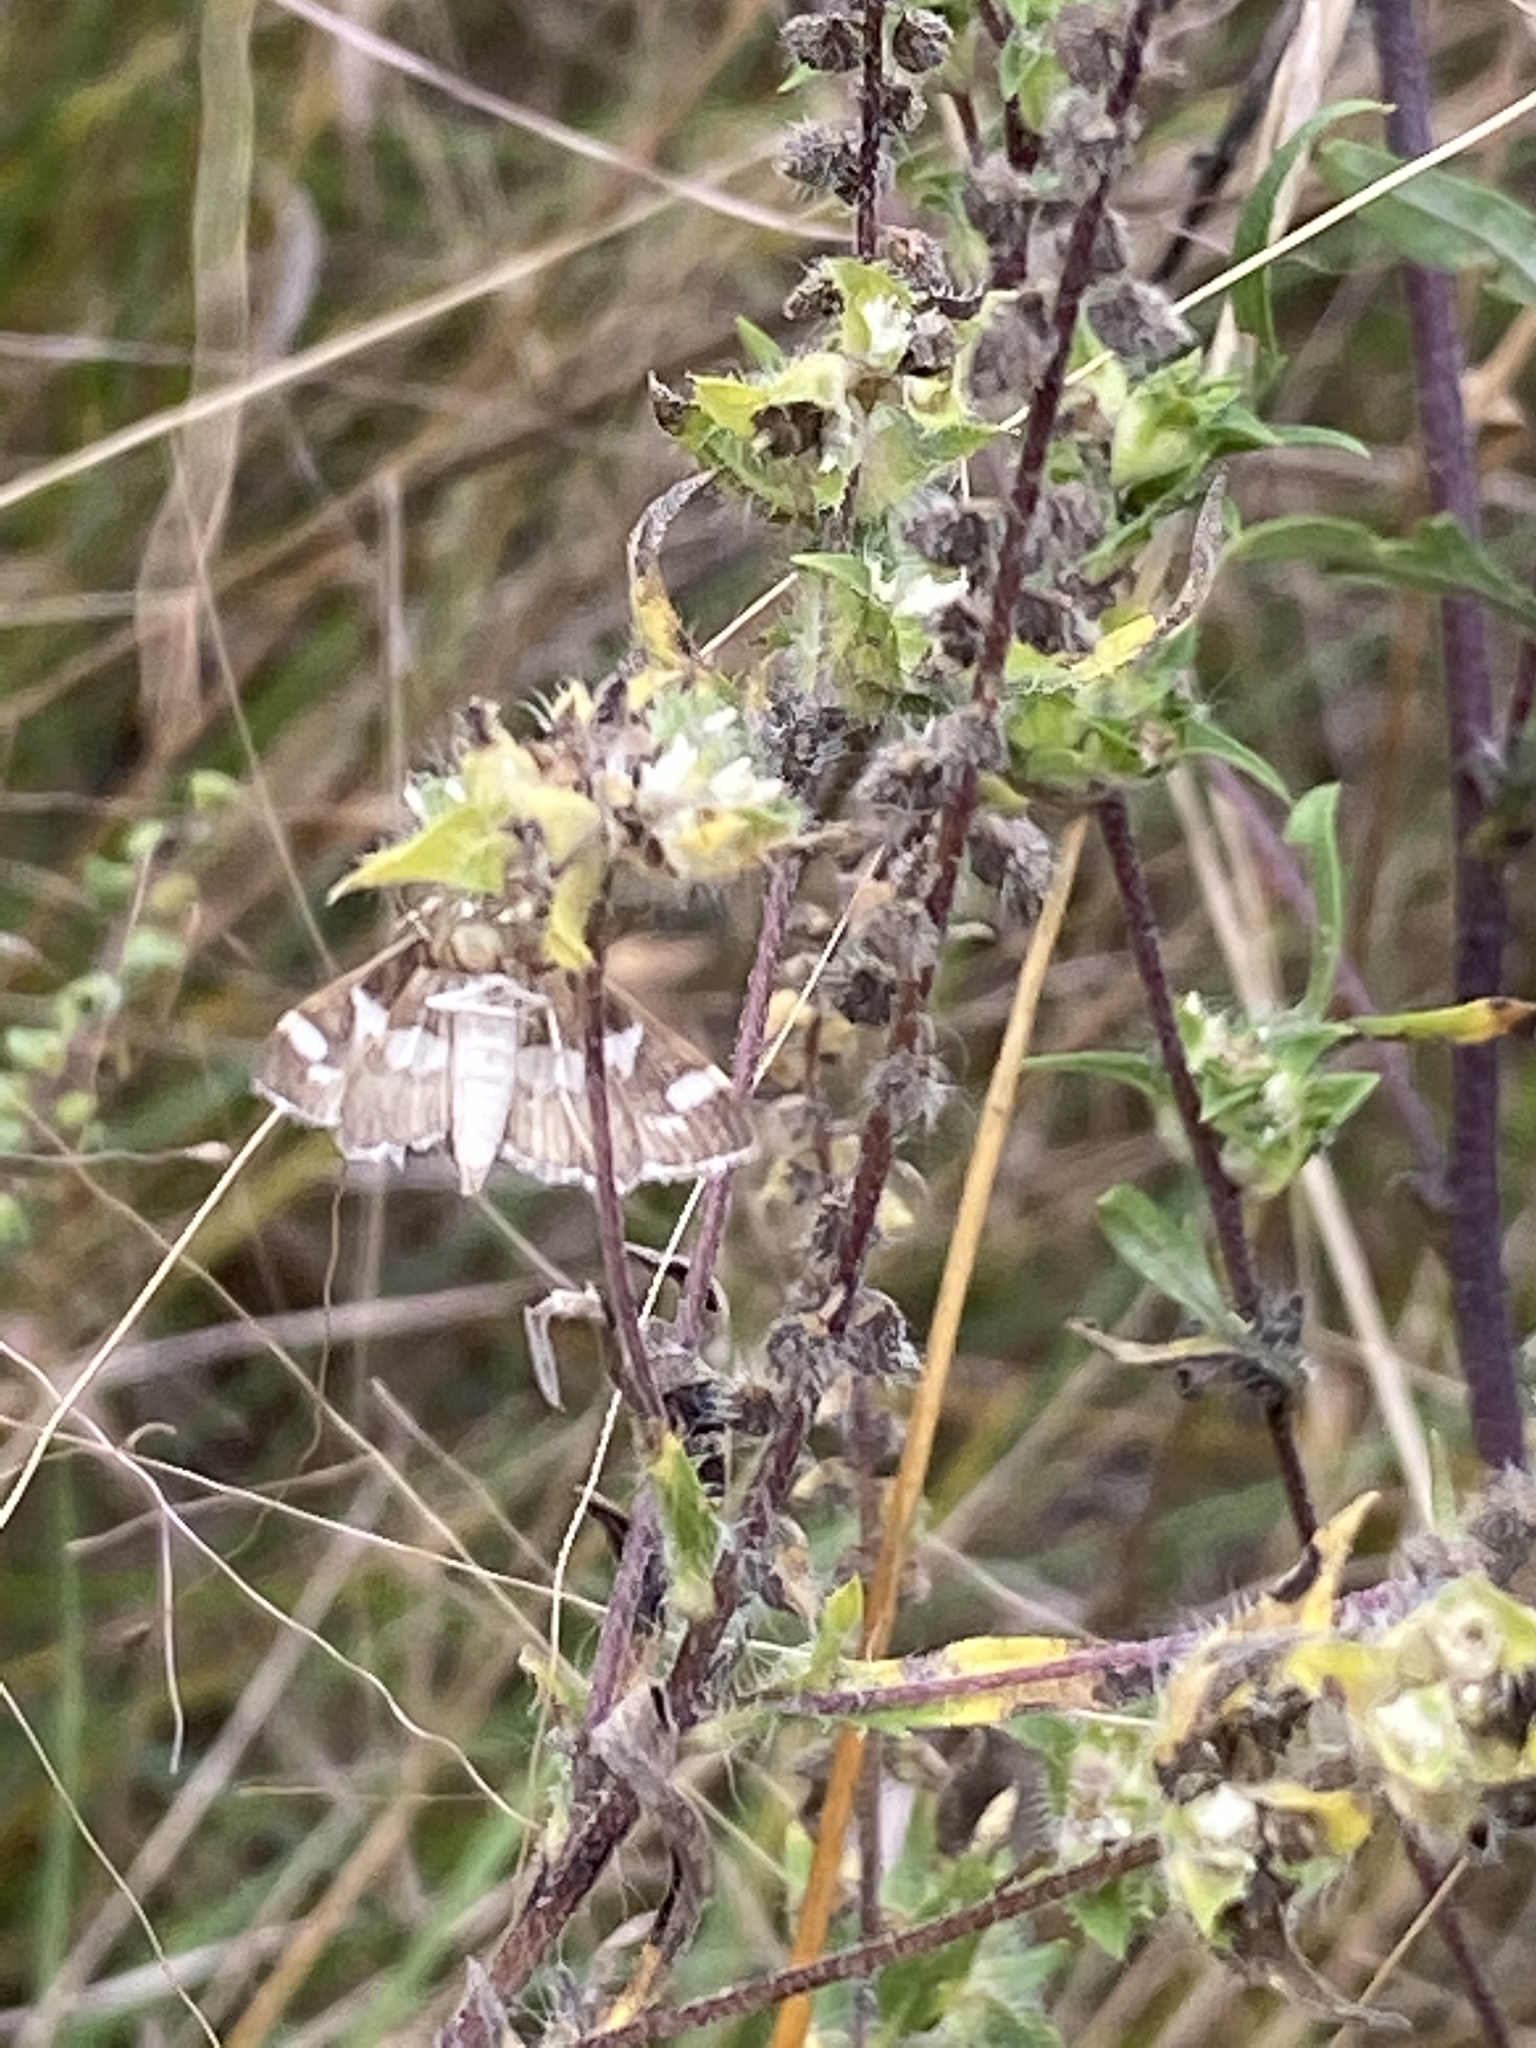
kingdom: Animalia
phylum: Arthropoda
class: Insecta
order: Lepidoptera
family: Crambidae
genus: Spoladea
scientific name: Spoladea recurvalis
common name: Beet webworm moth
